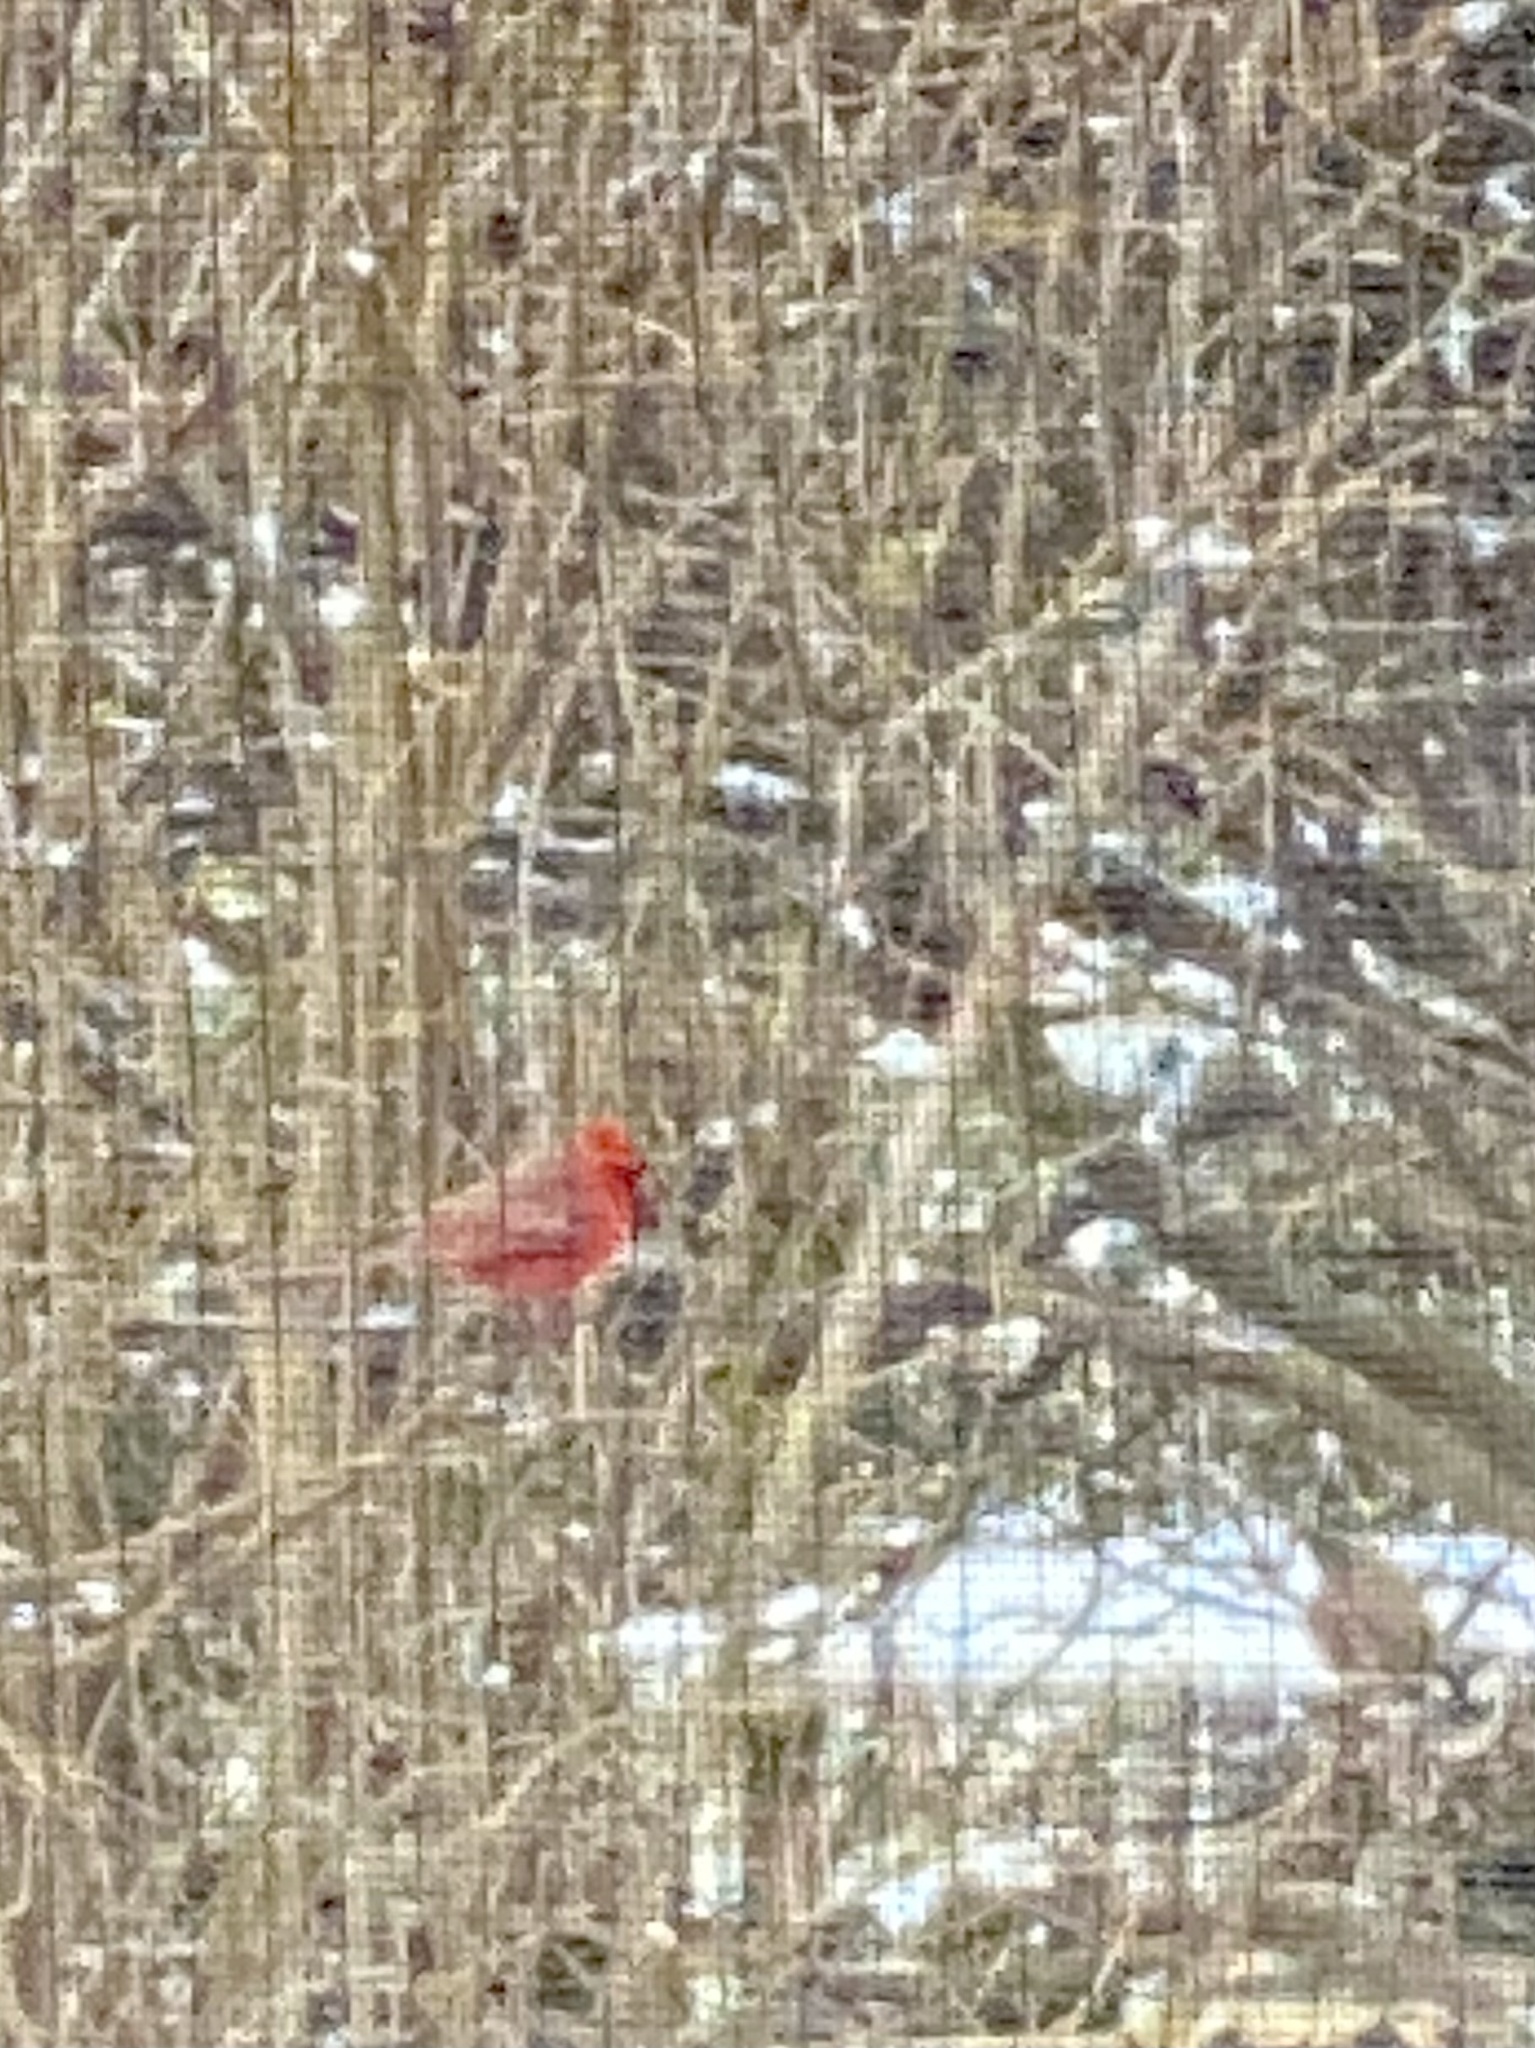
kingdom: Animalia
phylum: Chordata
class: Aves
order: Passeriformes
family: Cardinalidae
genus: Cardinalis
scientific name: Cardinalis cardinalis
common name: Northern cardinal
